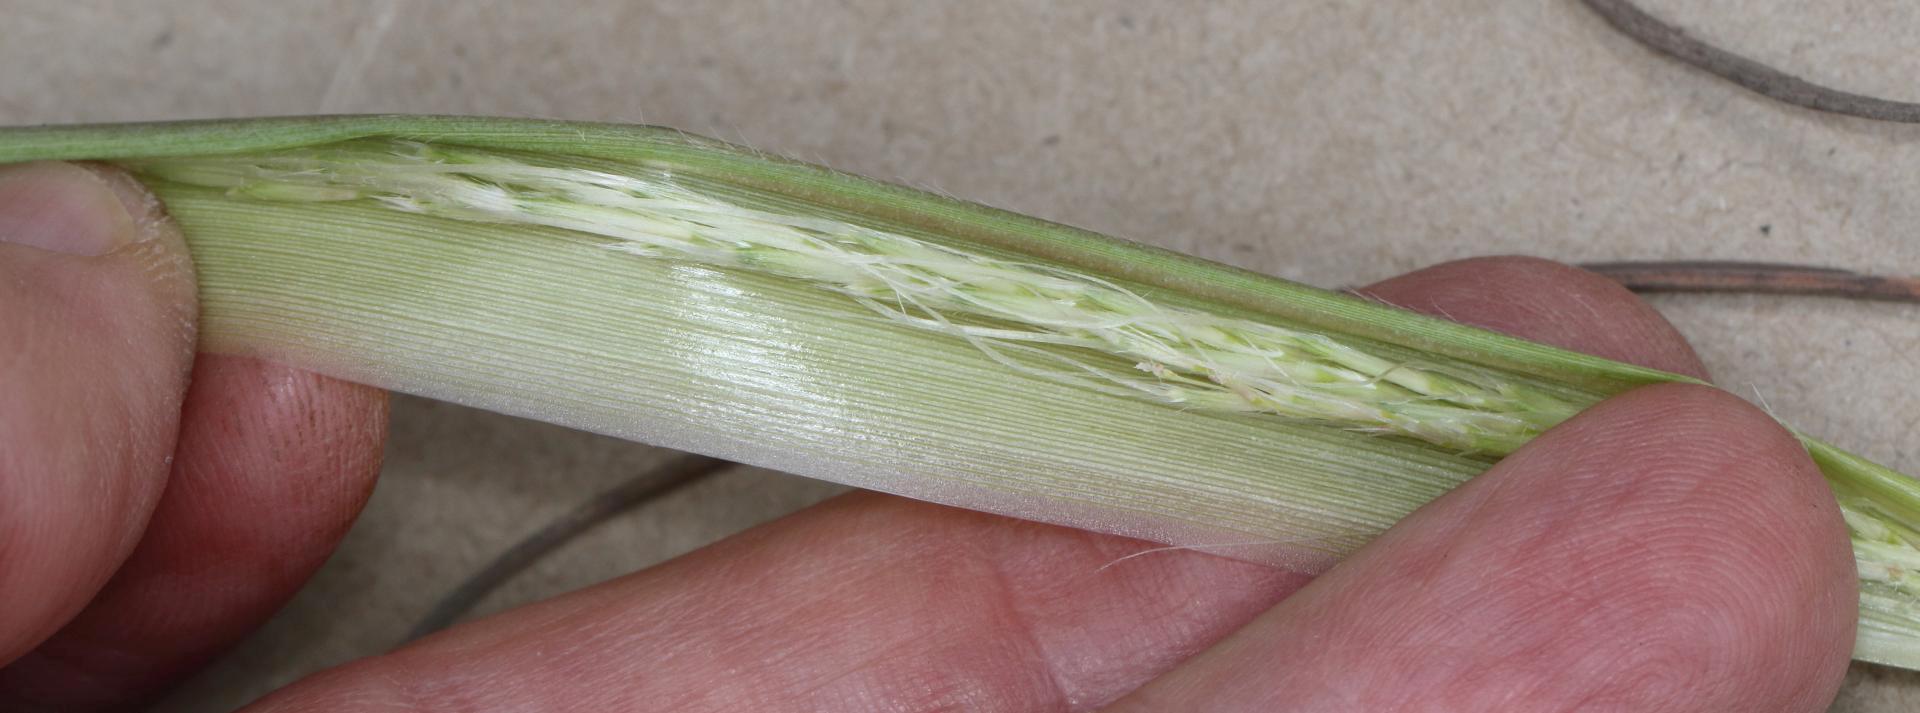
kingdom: Plantae
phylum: Tracheophyta
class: Liliopsida
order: Poales
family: Poaceae
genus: Trachypogon
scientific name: Trachypogon spicatus
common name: Crinkle-awn
